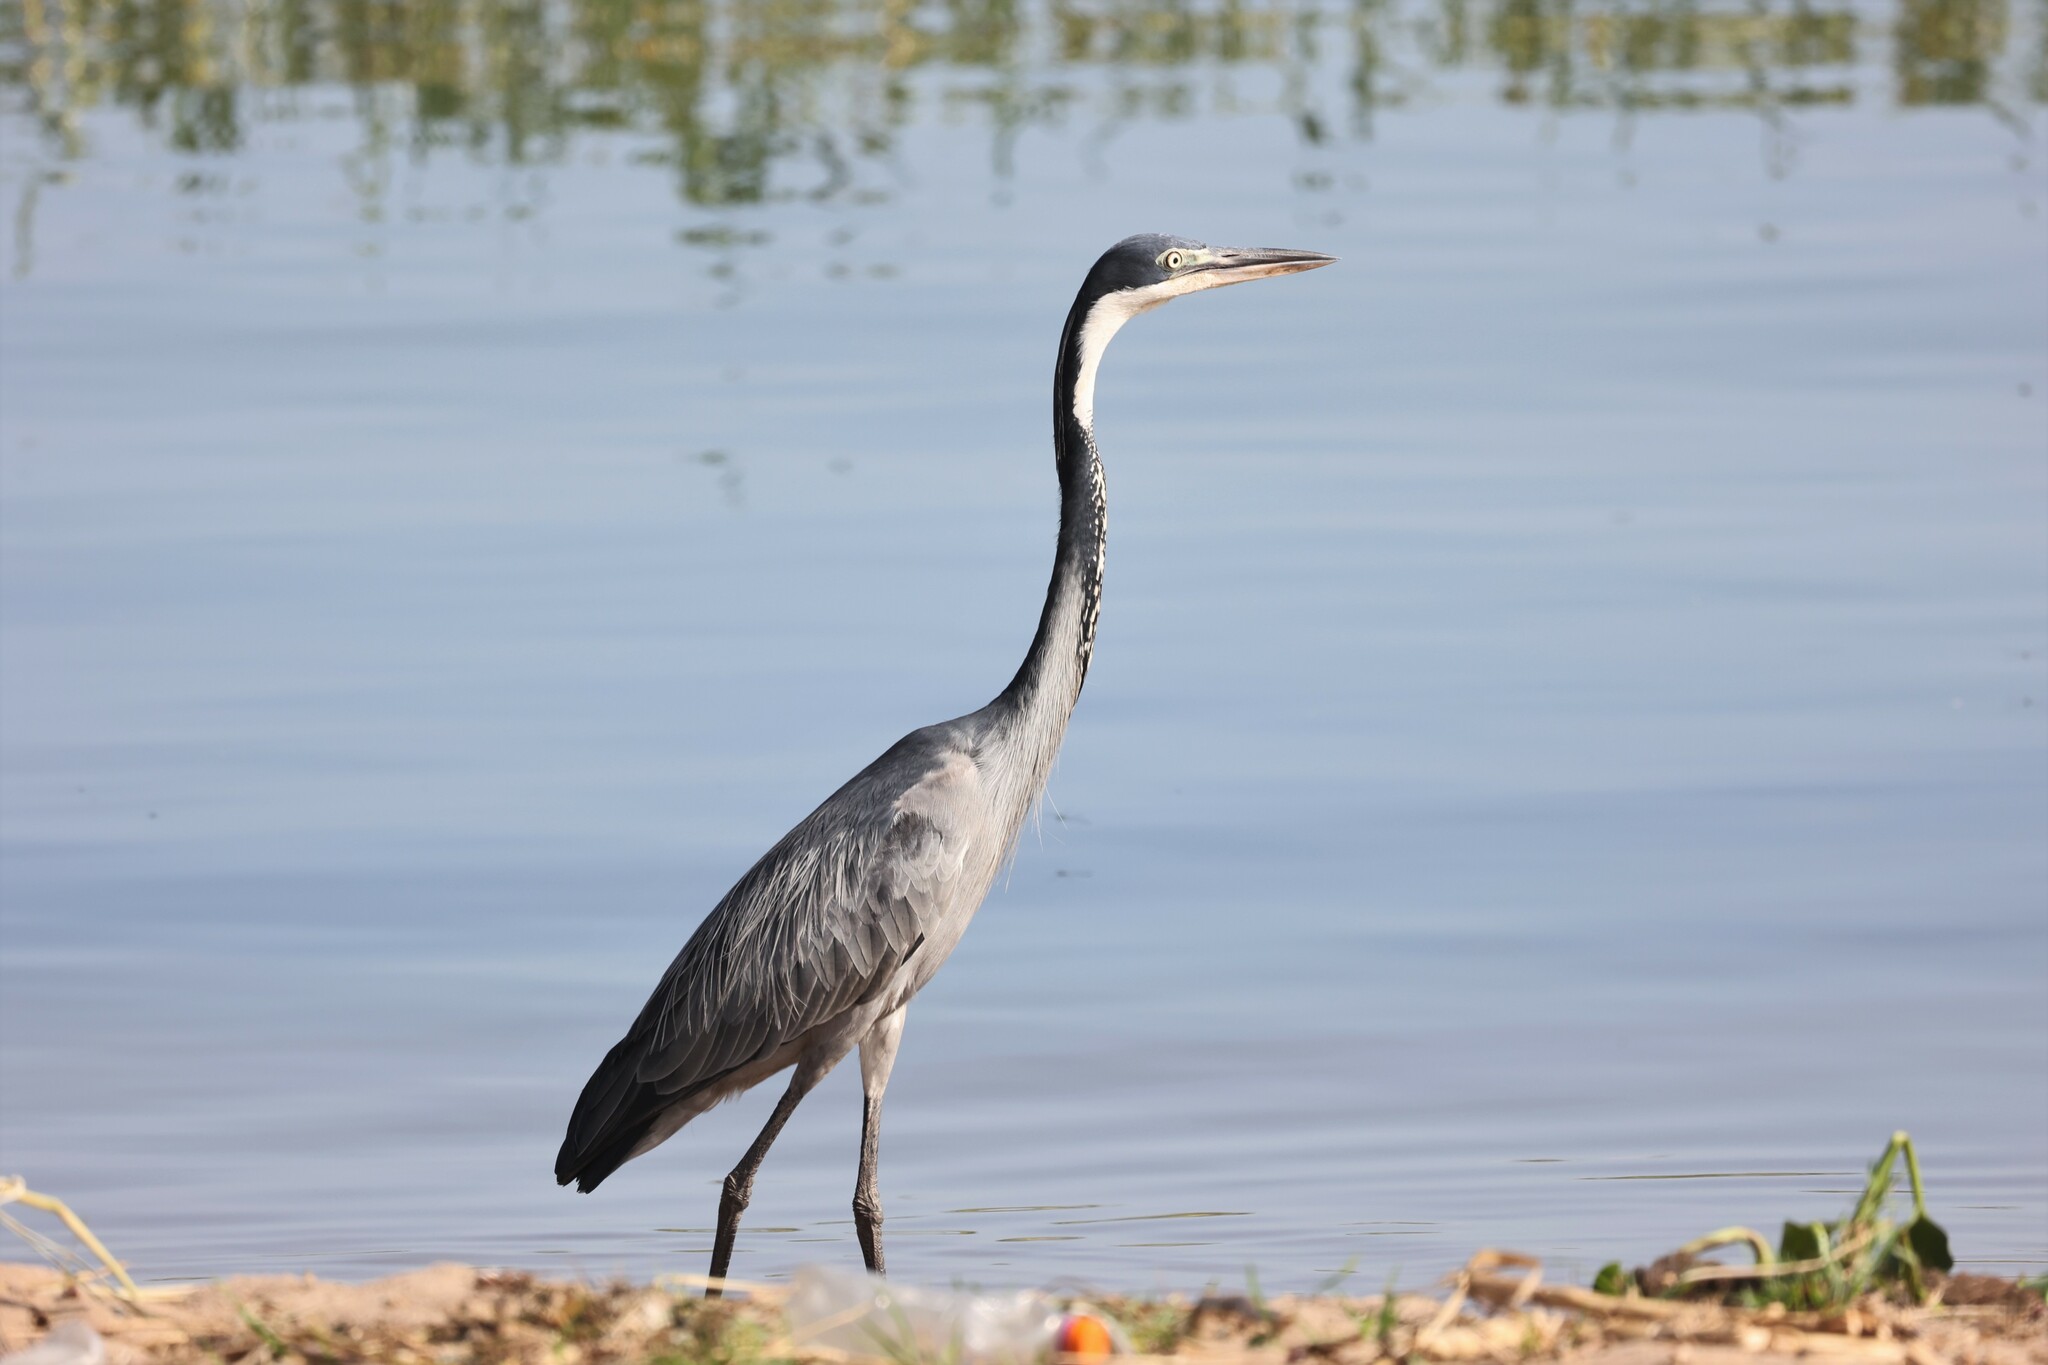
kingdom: Animalia
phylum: Chordata
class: Aves
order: Pelecaniformes
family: Ardeidae
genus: Ardea
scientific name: Ardea melanocephala
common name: Black-headed heron
